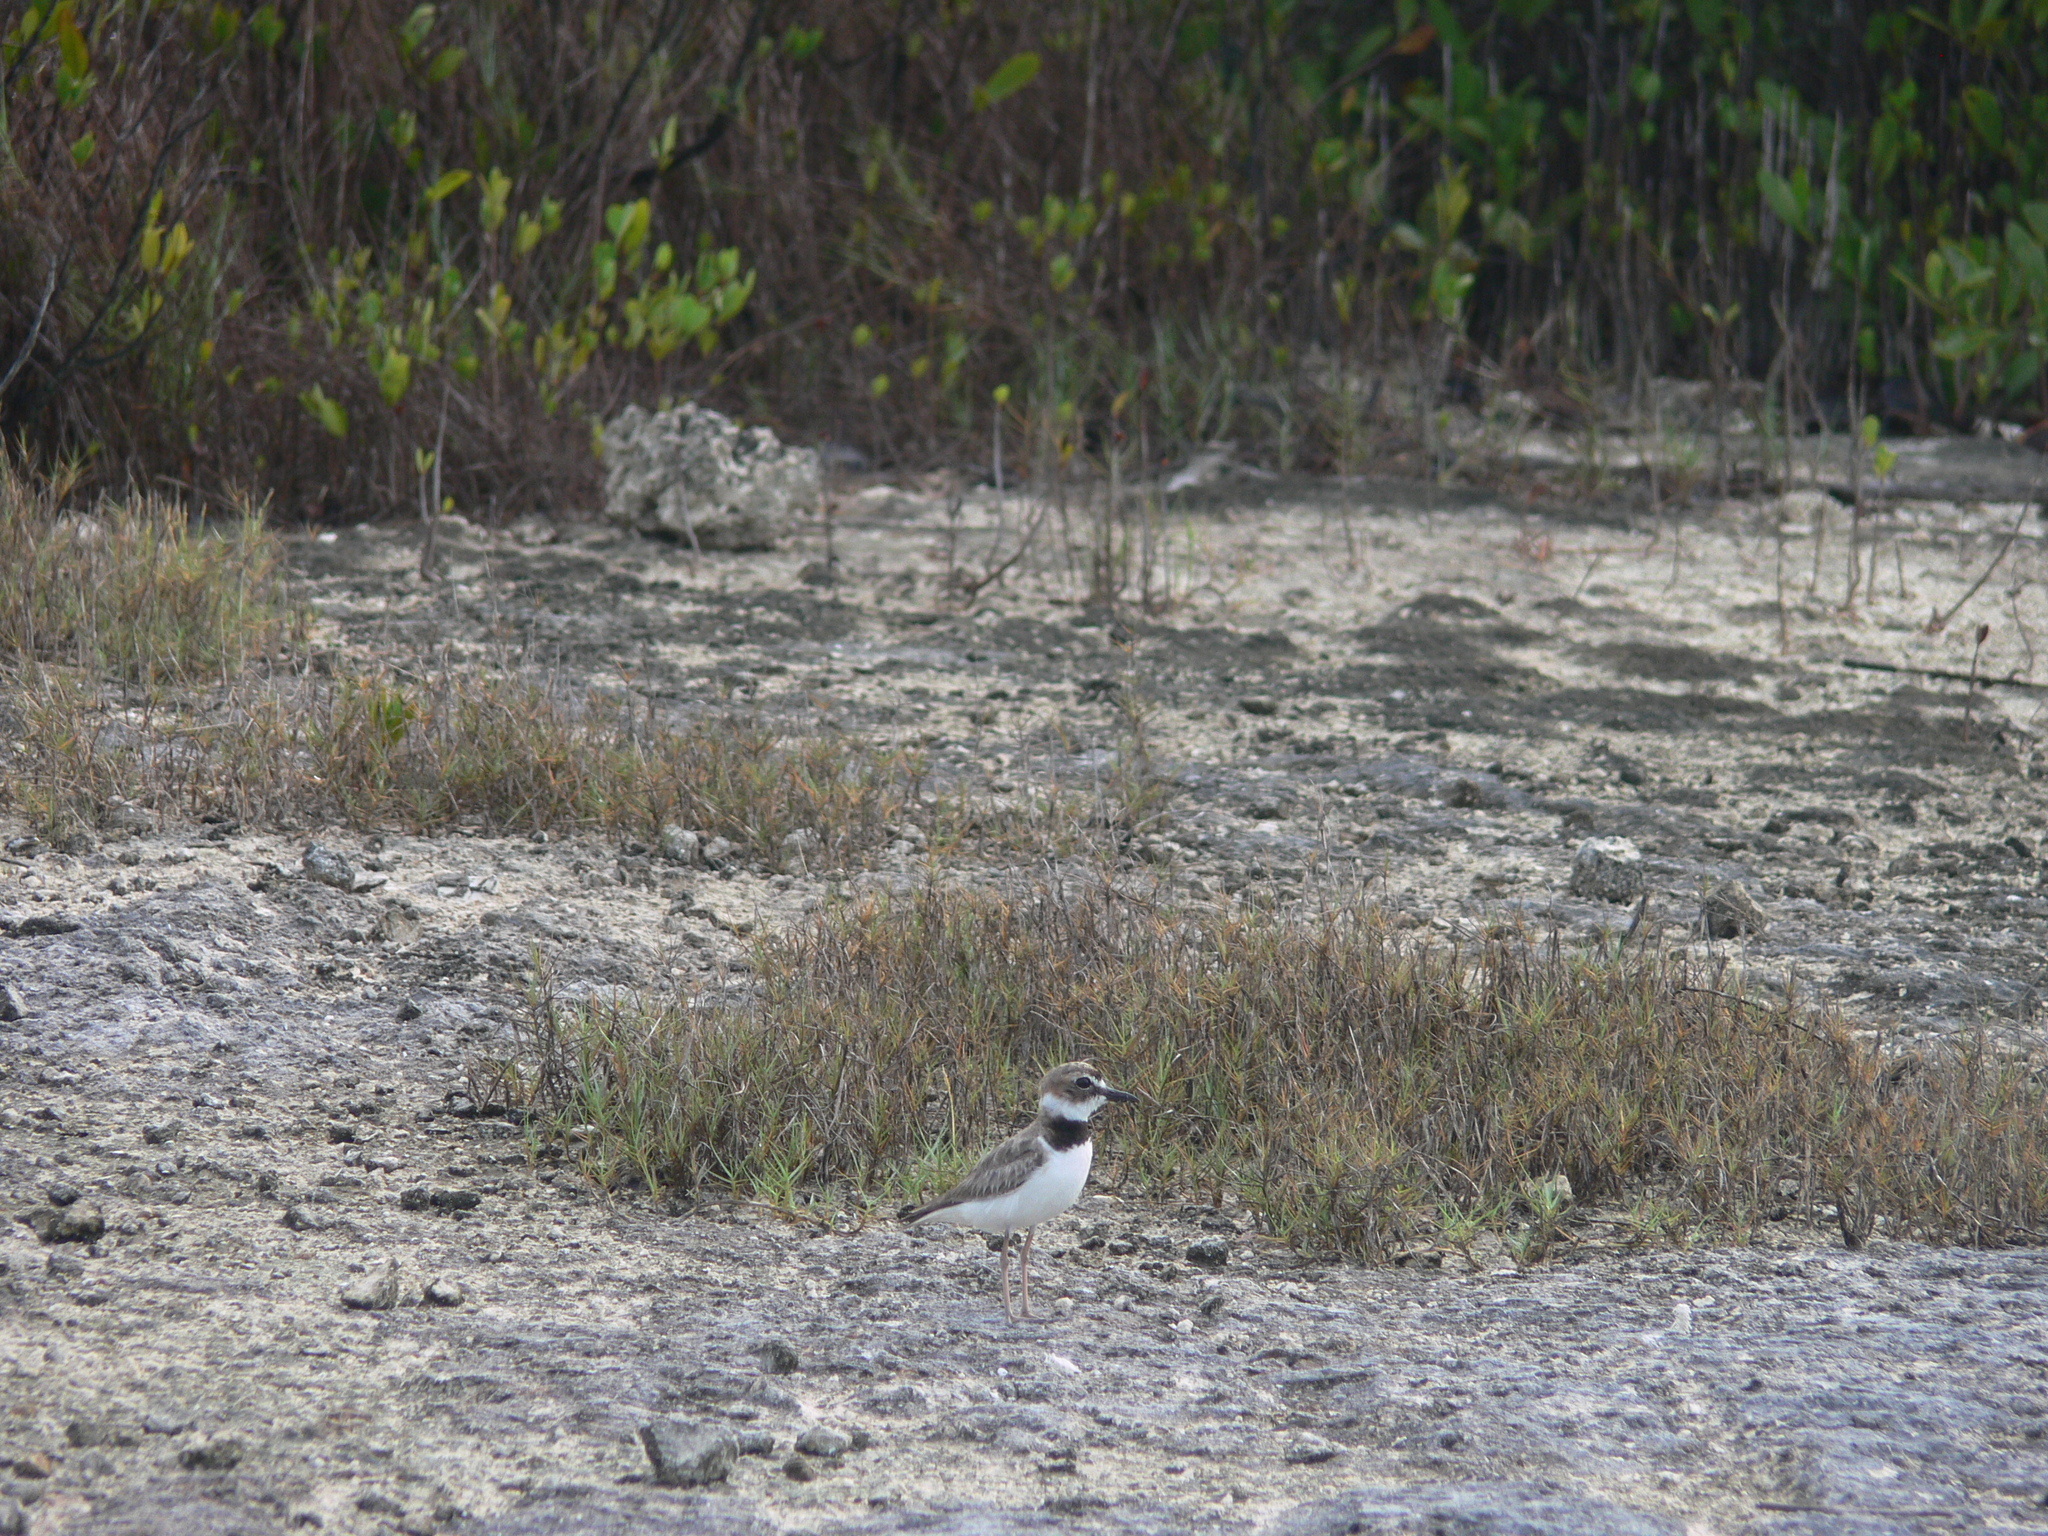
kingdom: Animalia
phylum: Chordata
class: Aves
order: Charadriiformes
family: Charadriidae
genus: Anarhynchus
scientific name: Anarhynchus
